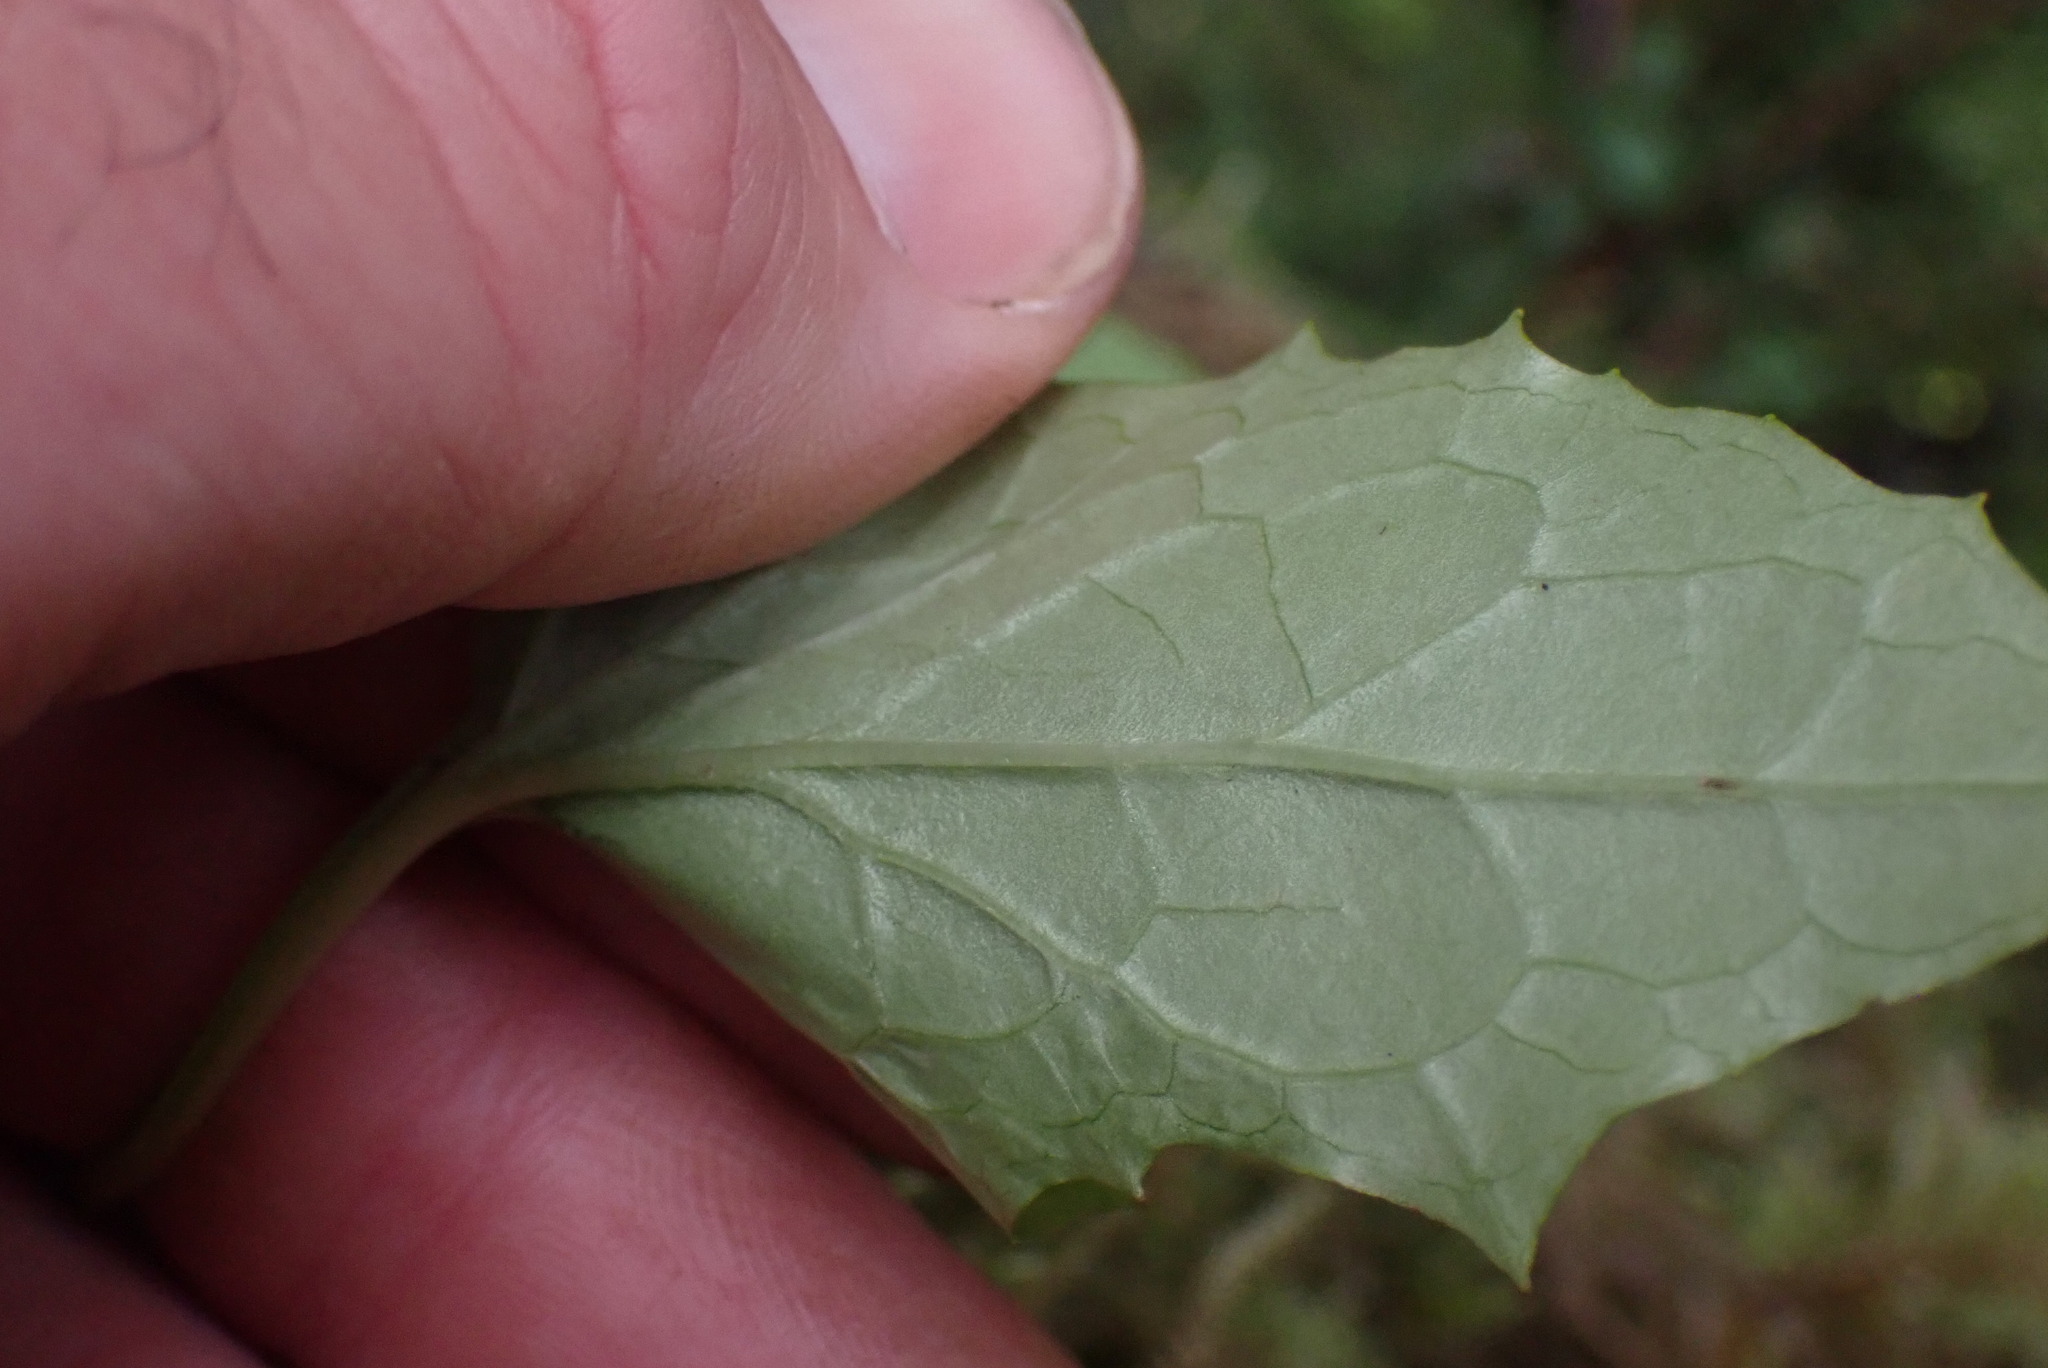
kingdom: Plantae
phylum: Tracheophyta
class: Magnoliopsida
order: Asterales
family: Asteraceae
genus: Nabalus
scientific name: Nabalus hastatus
